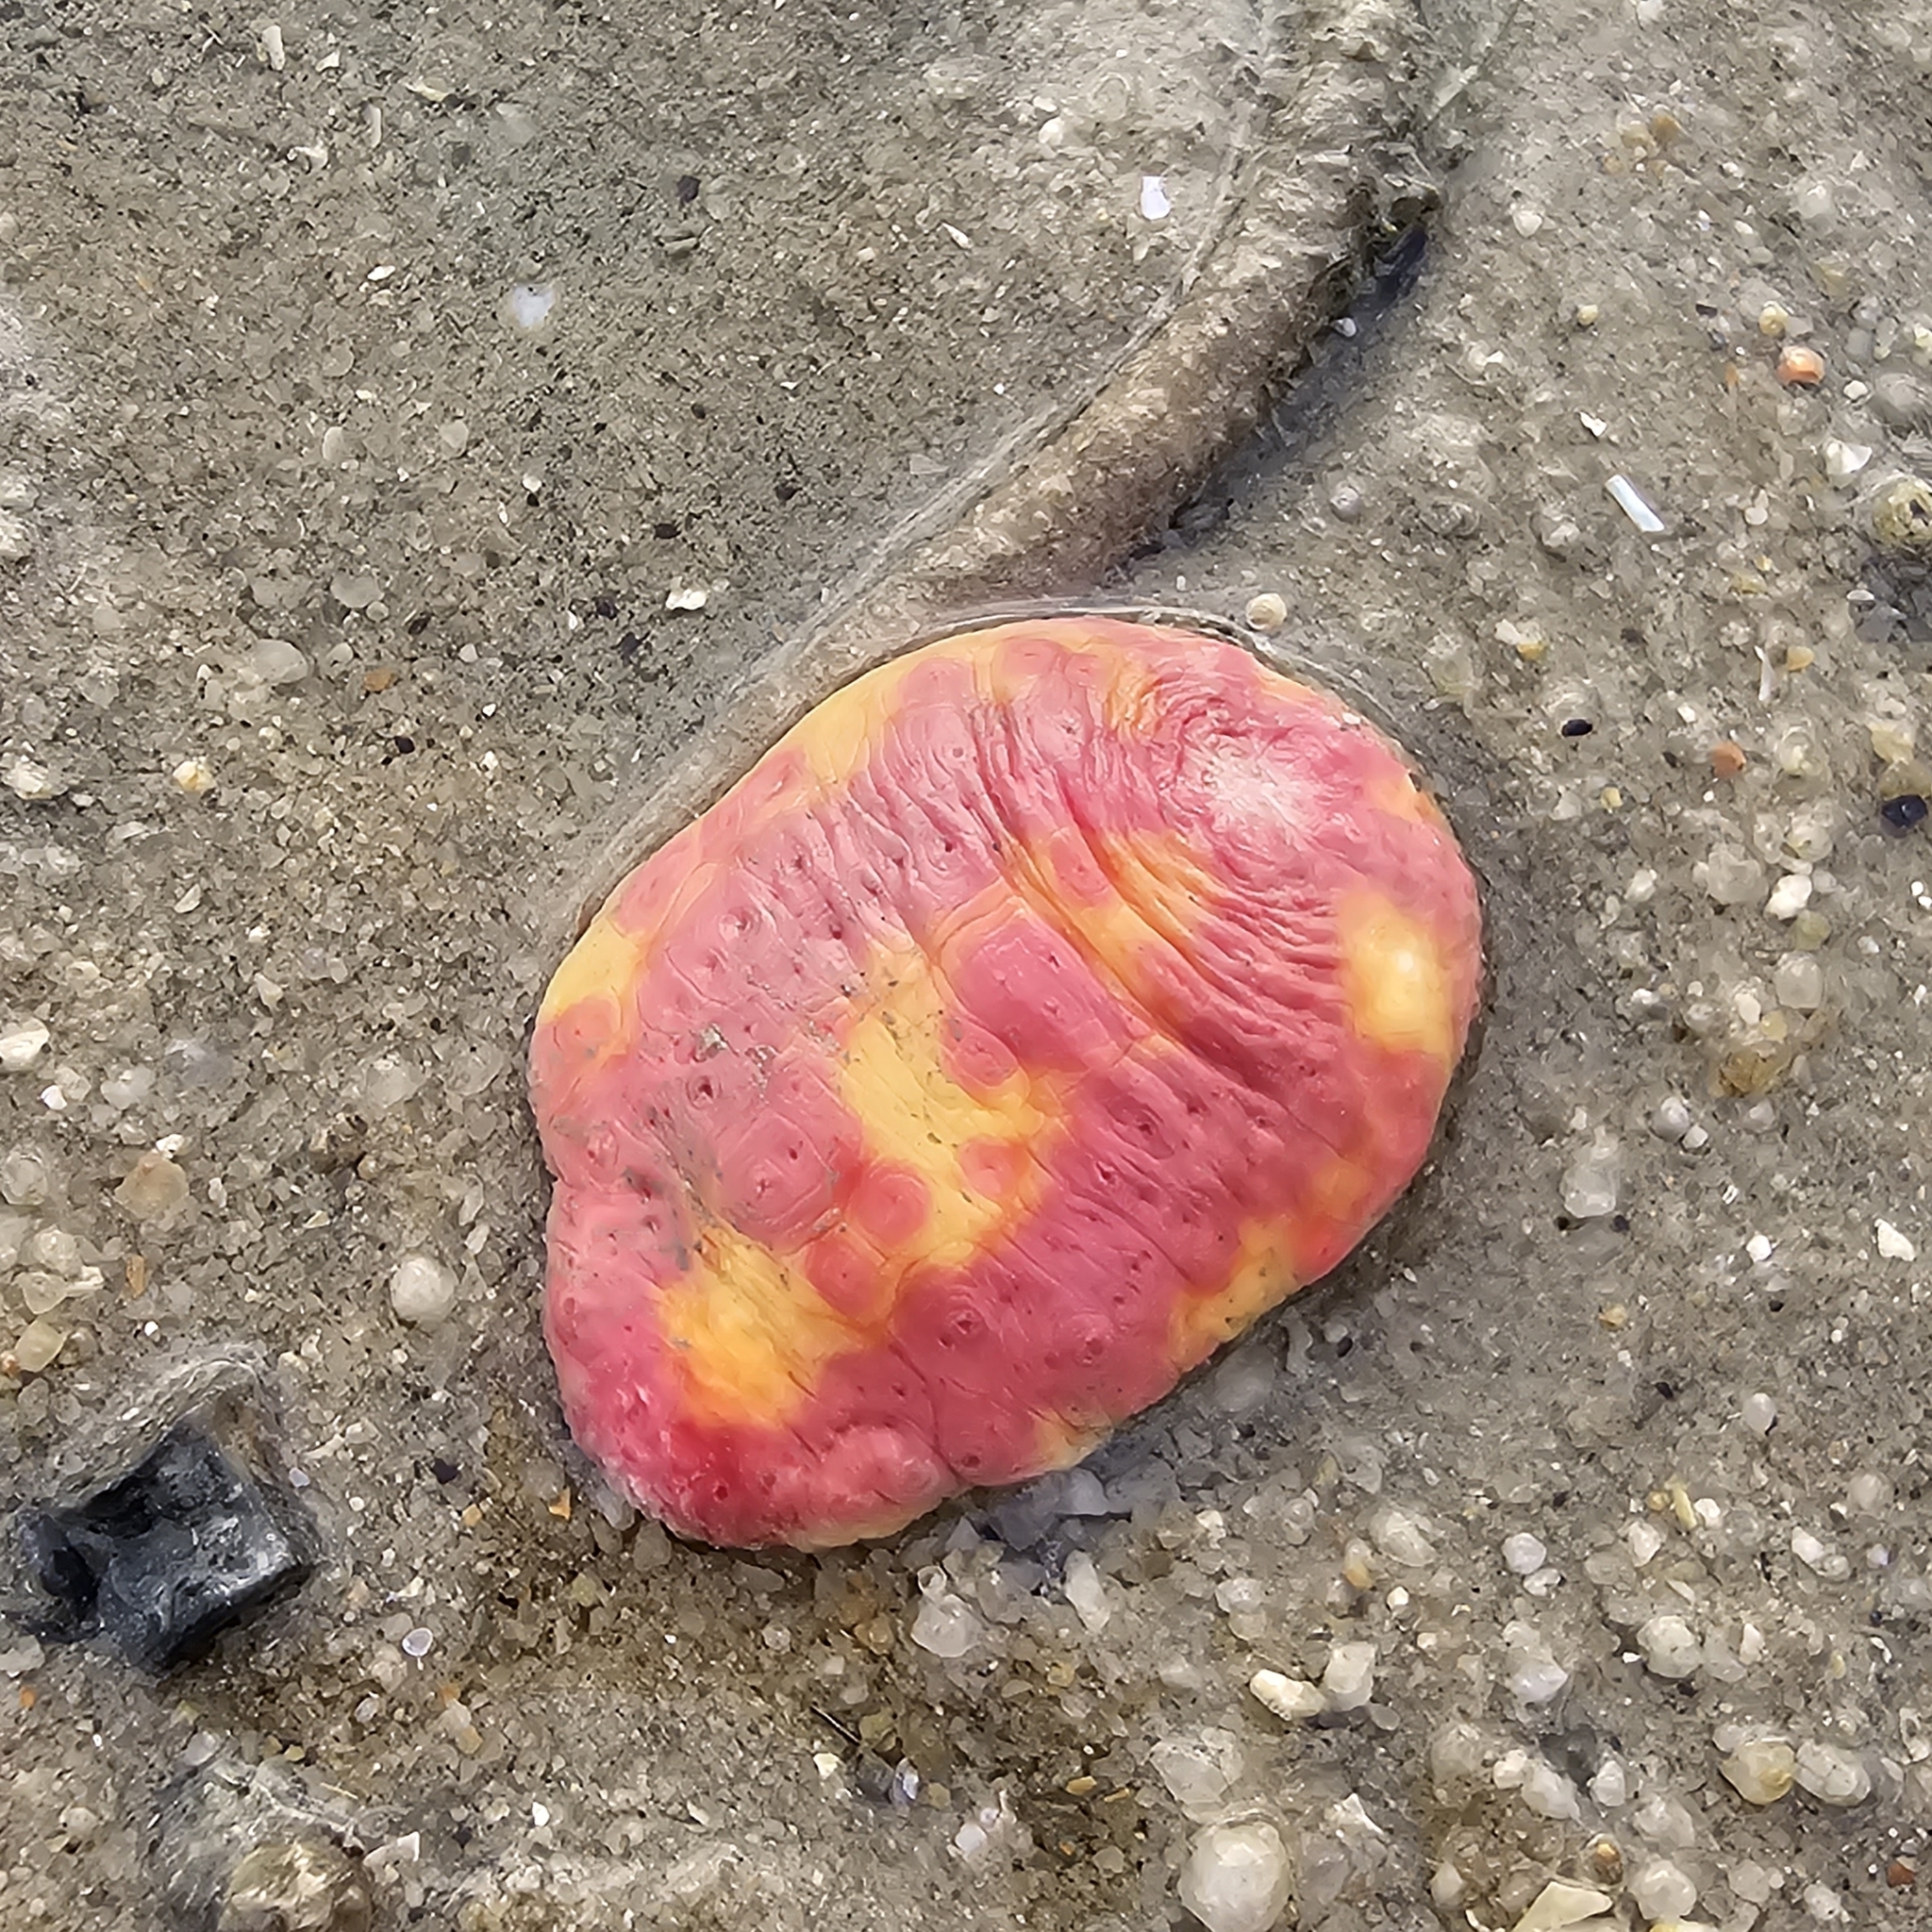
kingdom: Animalia
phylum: Echinodermata
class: Holothuroidea
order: Dendrochirotida
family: Cucumariidae
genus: Cercodemas
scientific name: Cercodemas anceps
